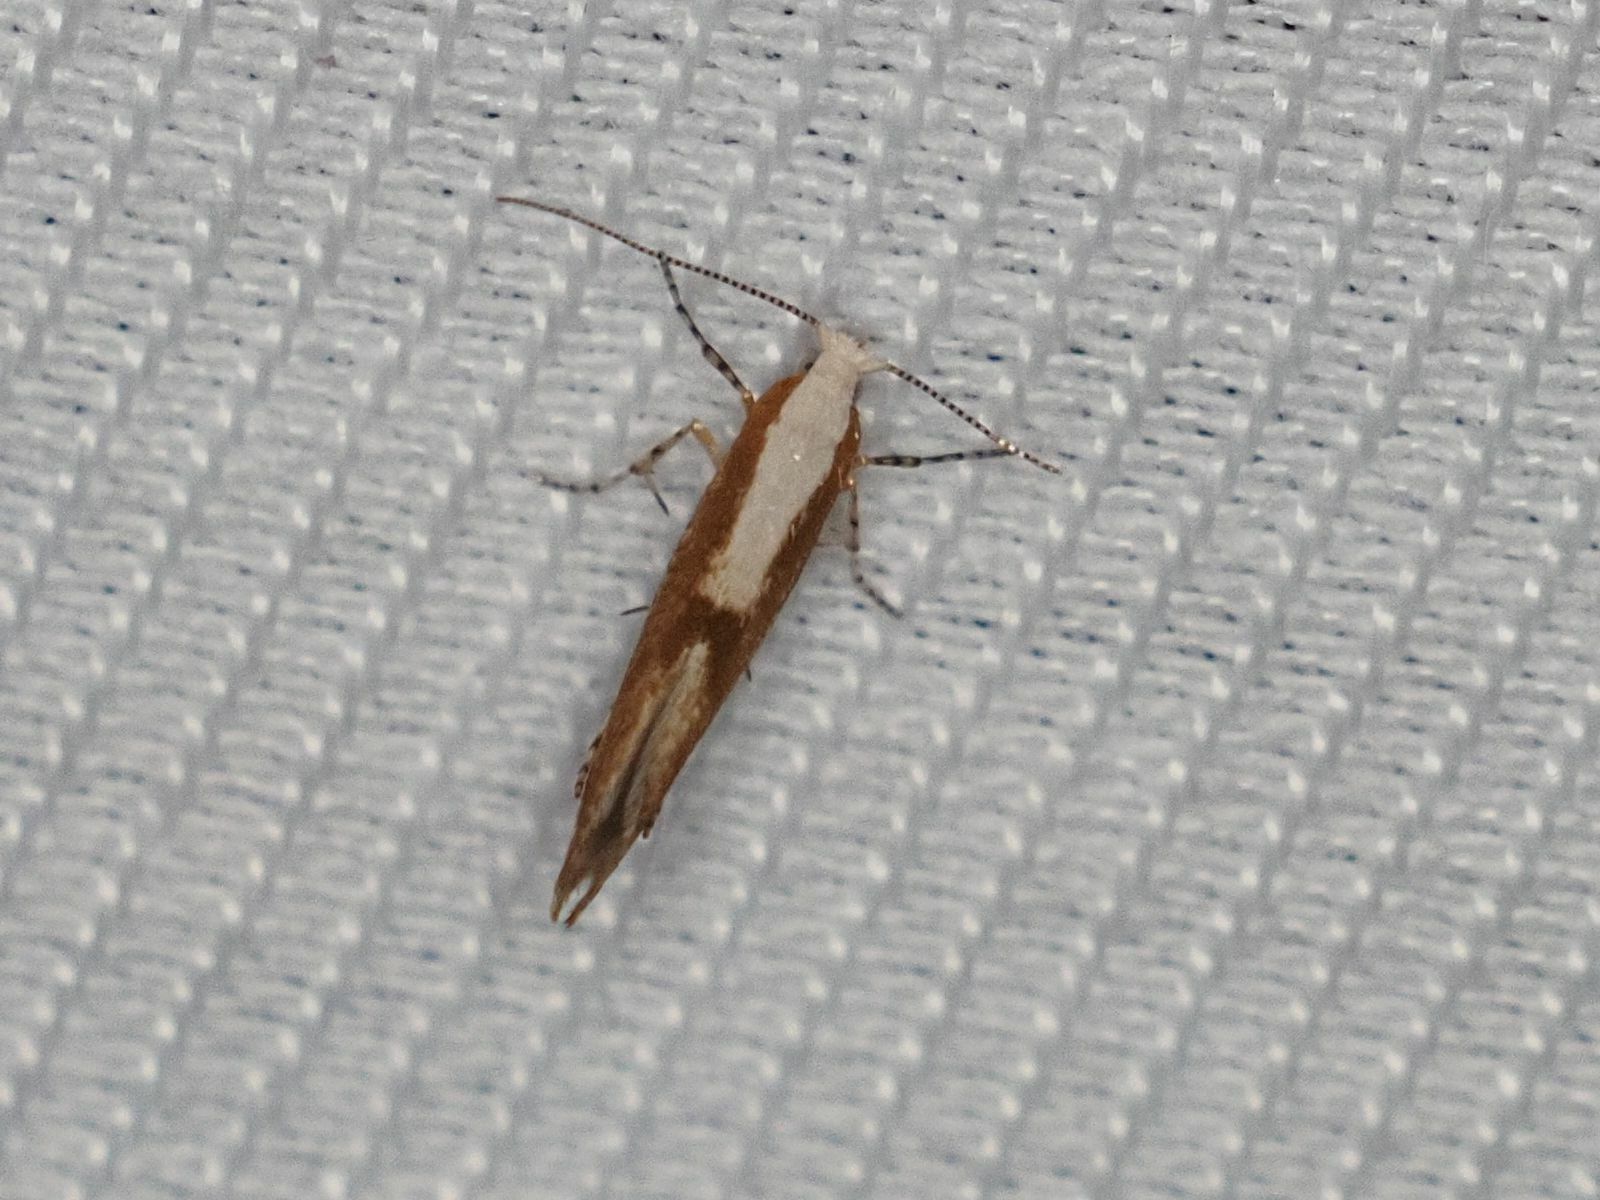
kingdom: Animalia
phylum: Arthropoda
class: Insecta
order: Lepidoptera
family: Argyresthiidae
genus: Argyresthia
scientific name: Argyresthia pruniella
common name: Cherry fruit moth
